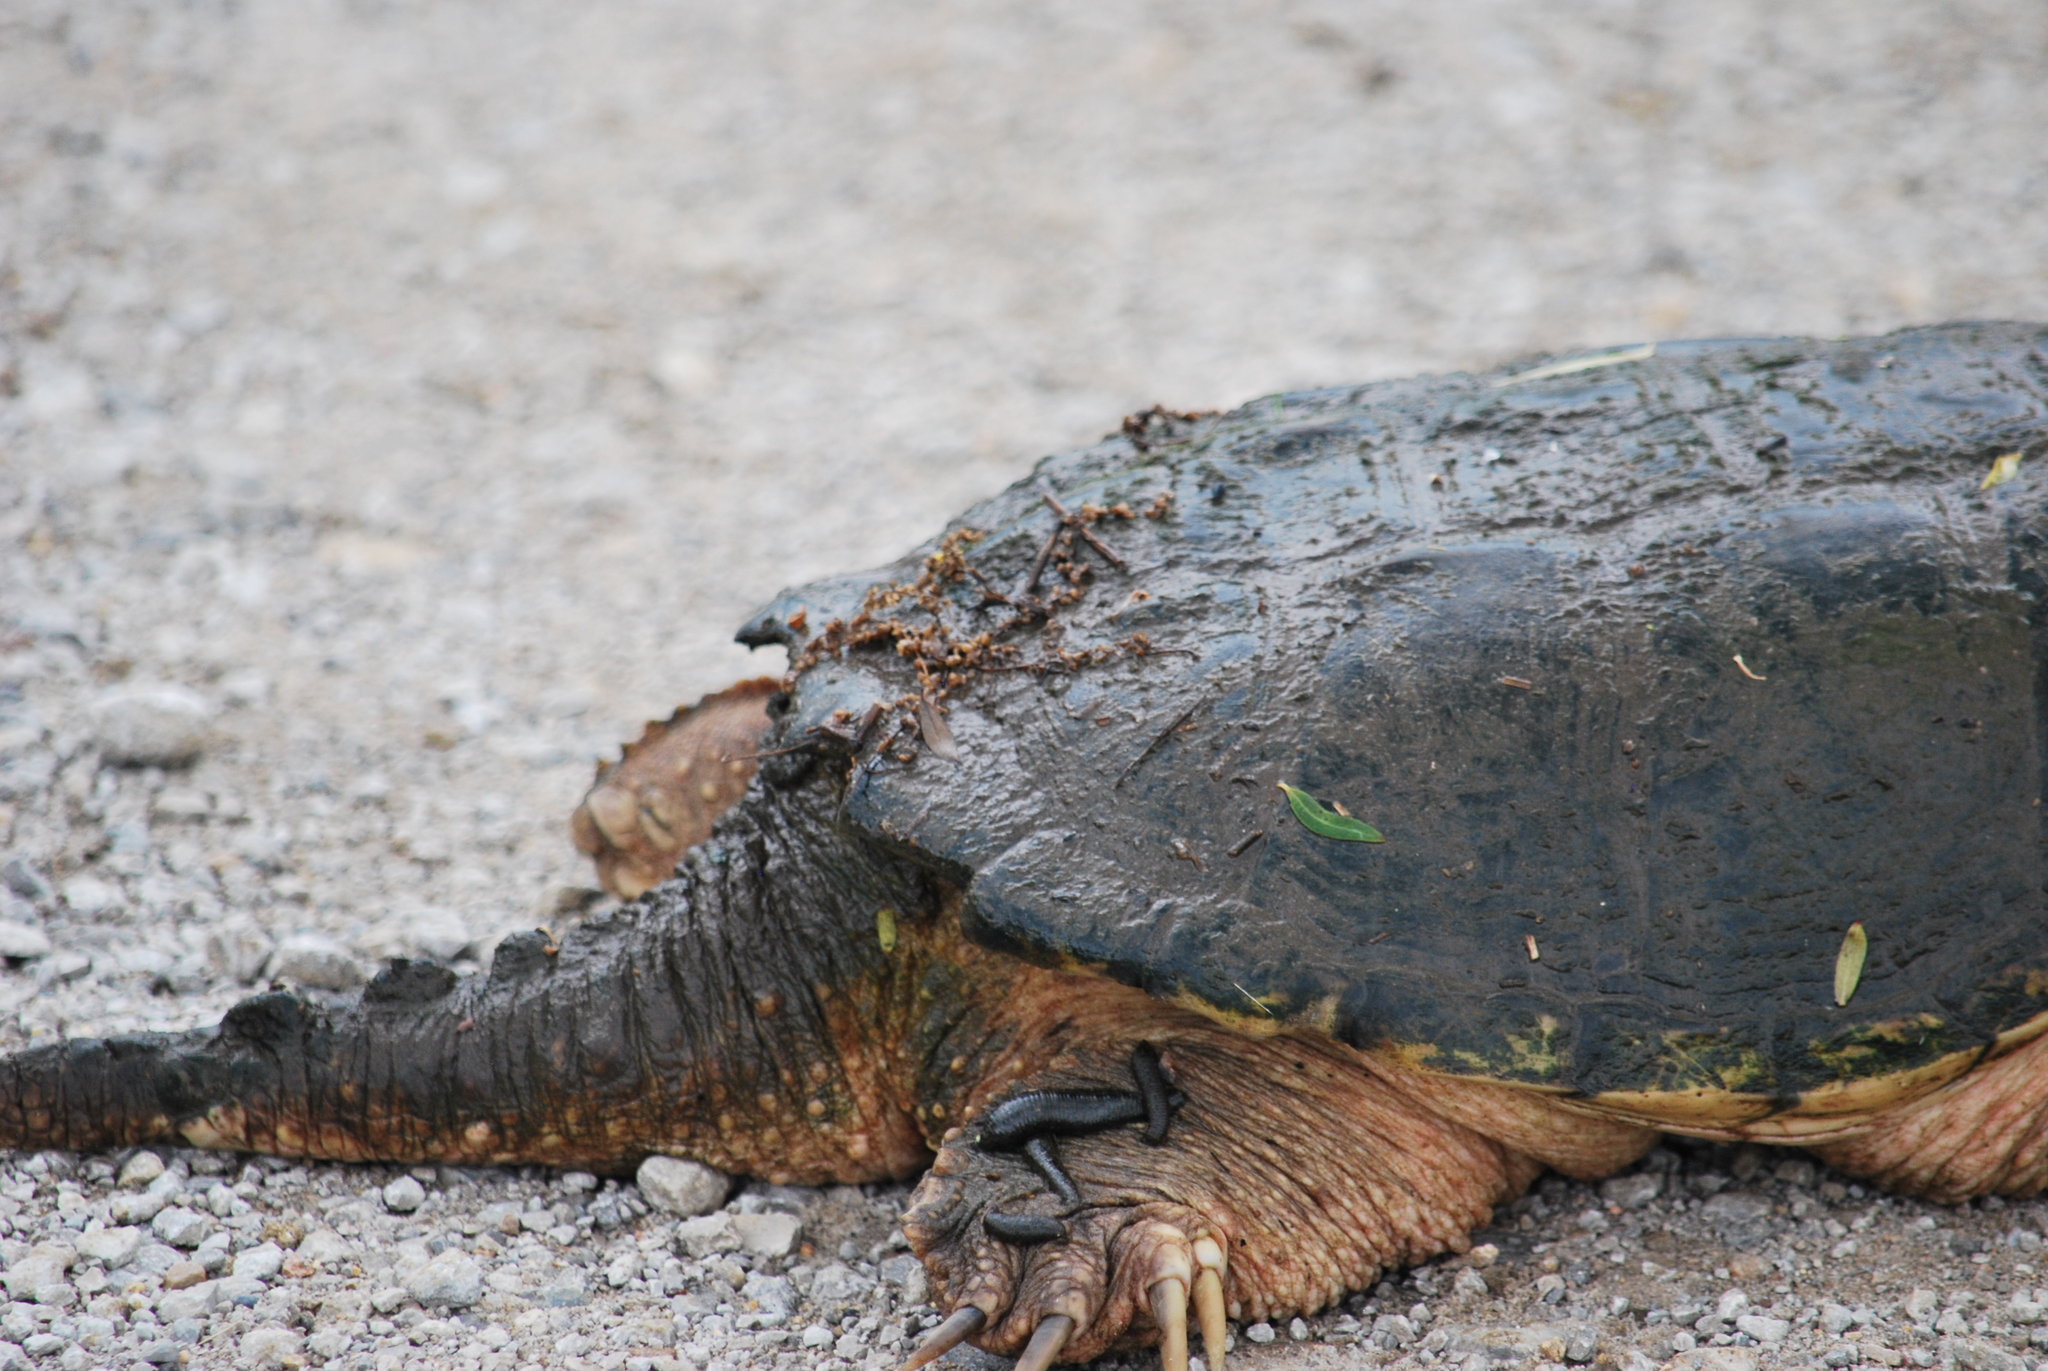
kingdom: Animalia
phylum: Chordata
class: Testudines
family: Chelydridae
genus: Chelydra
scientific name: Chelydra serpentina
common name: Common snapping turtle
